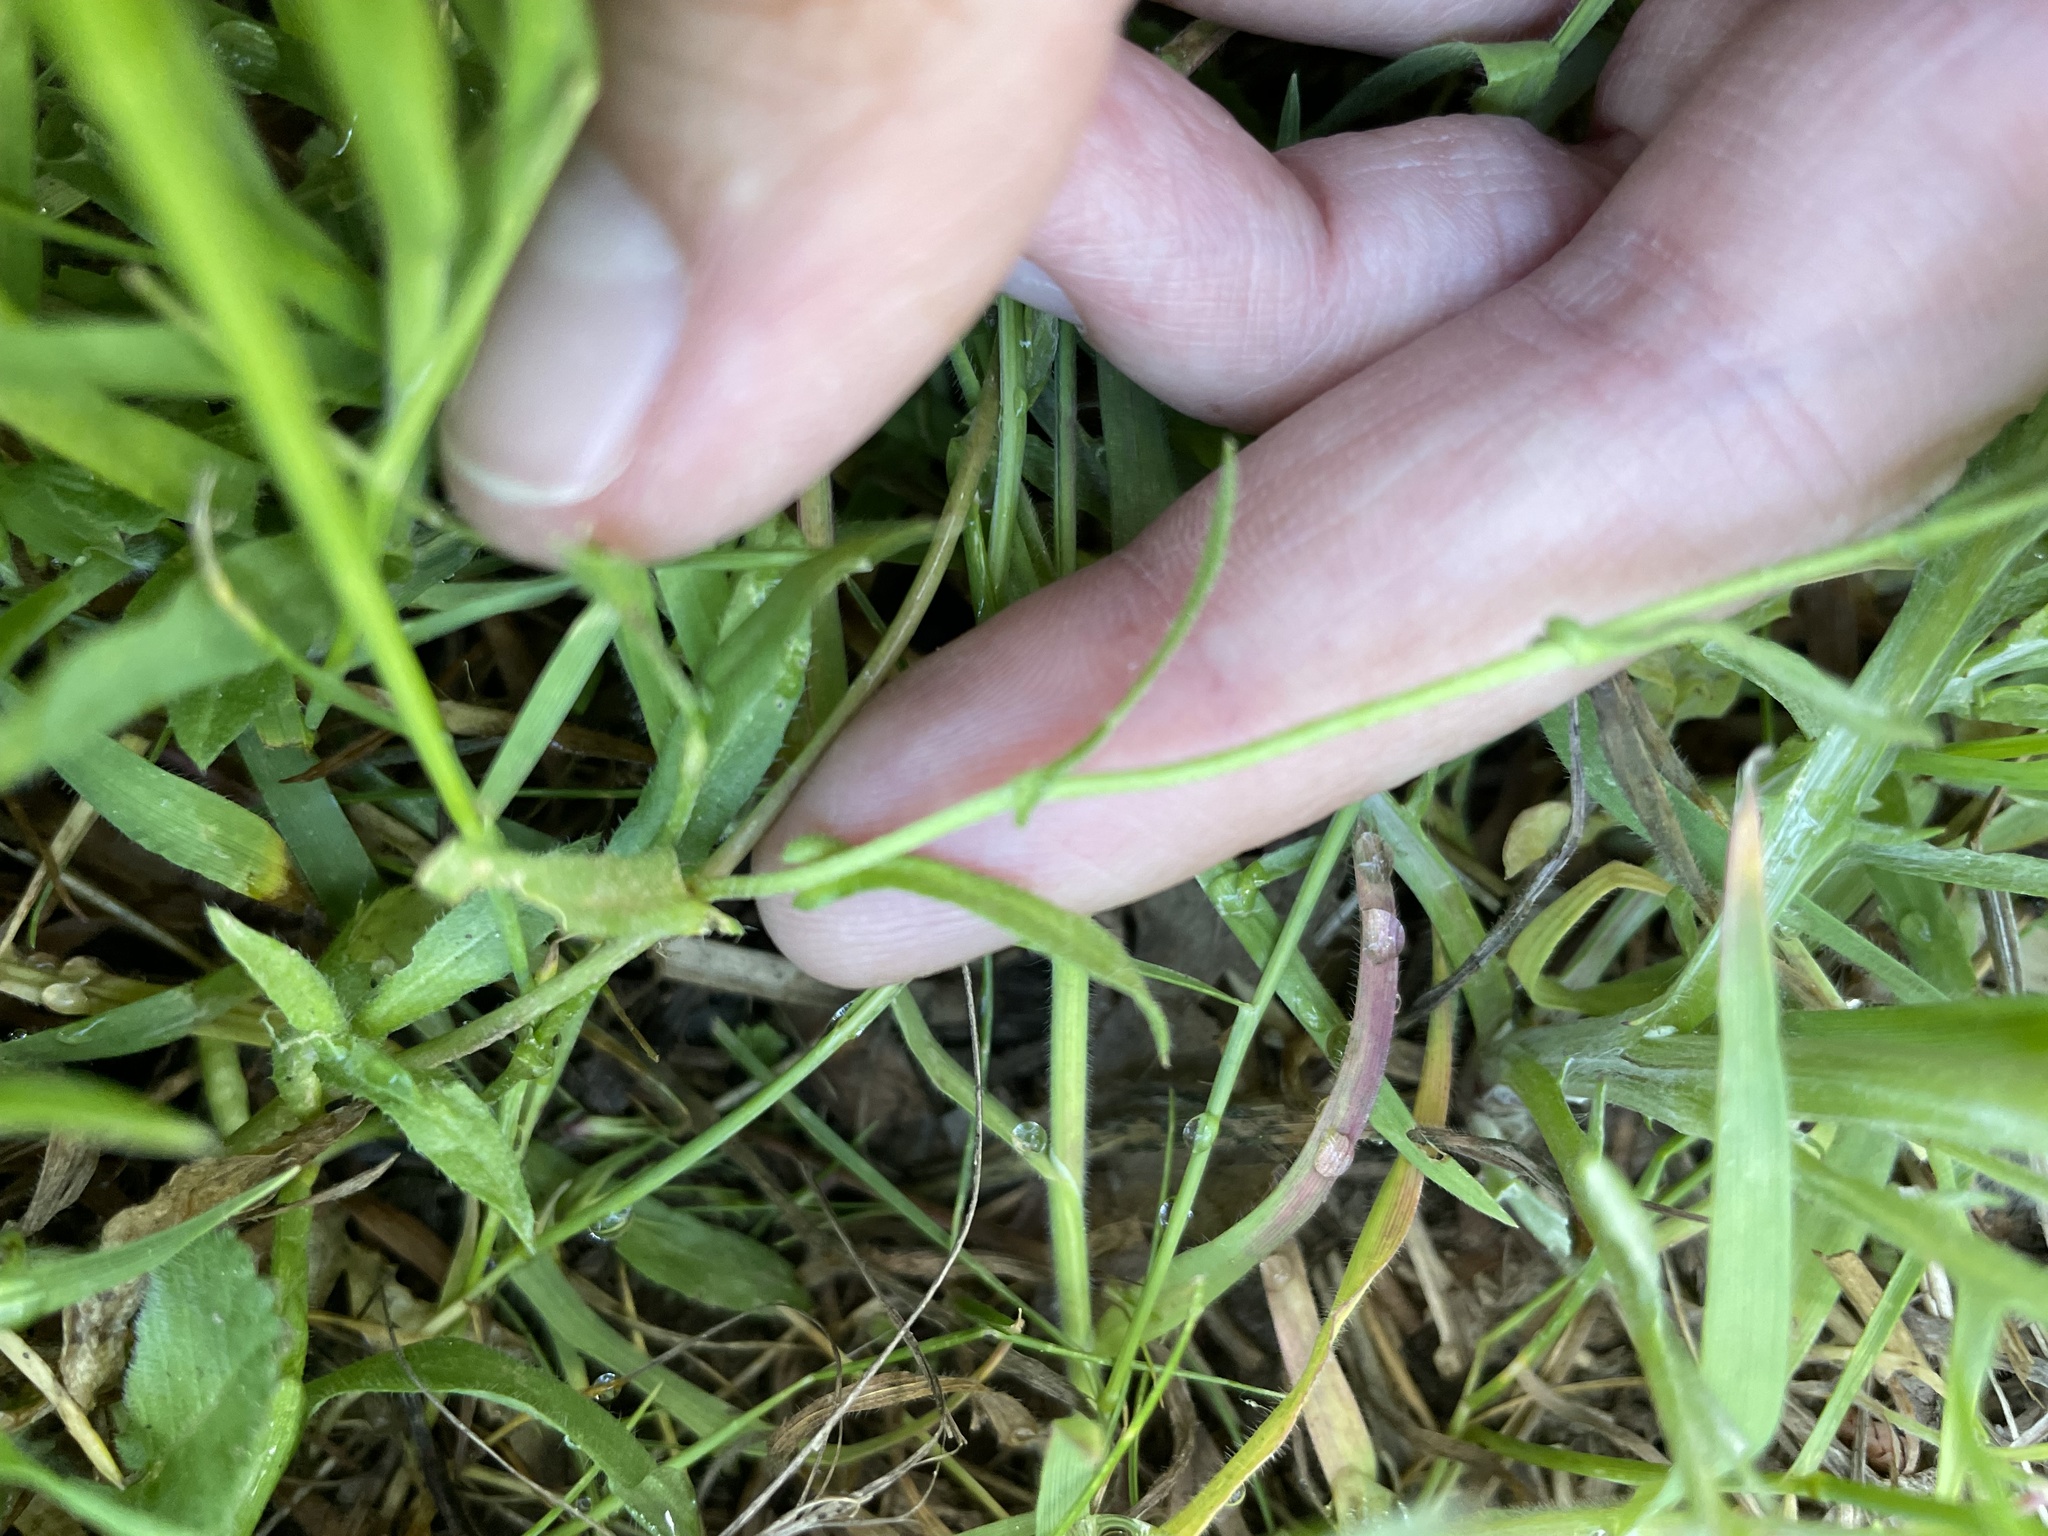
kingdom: Plantae
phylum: Tracheophyta
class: Magnoliopsida
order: Brassicales
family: Brassicaceae
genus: Capsella
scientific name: Capsella bursa-pastoris
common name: Shepherd's purse
